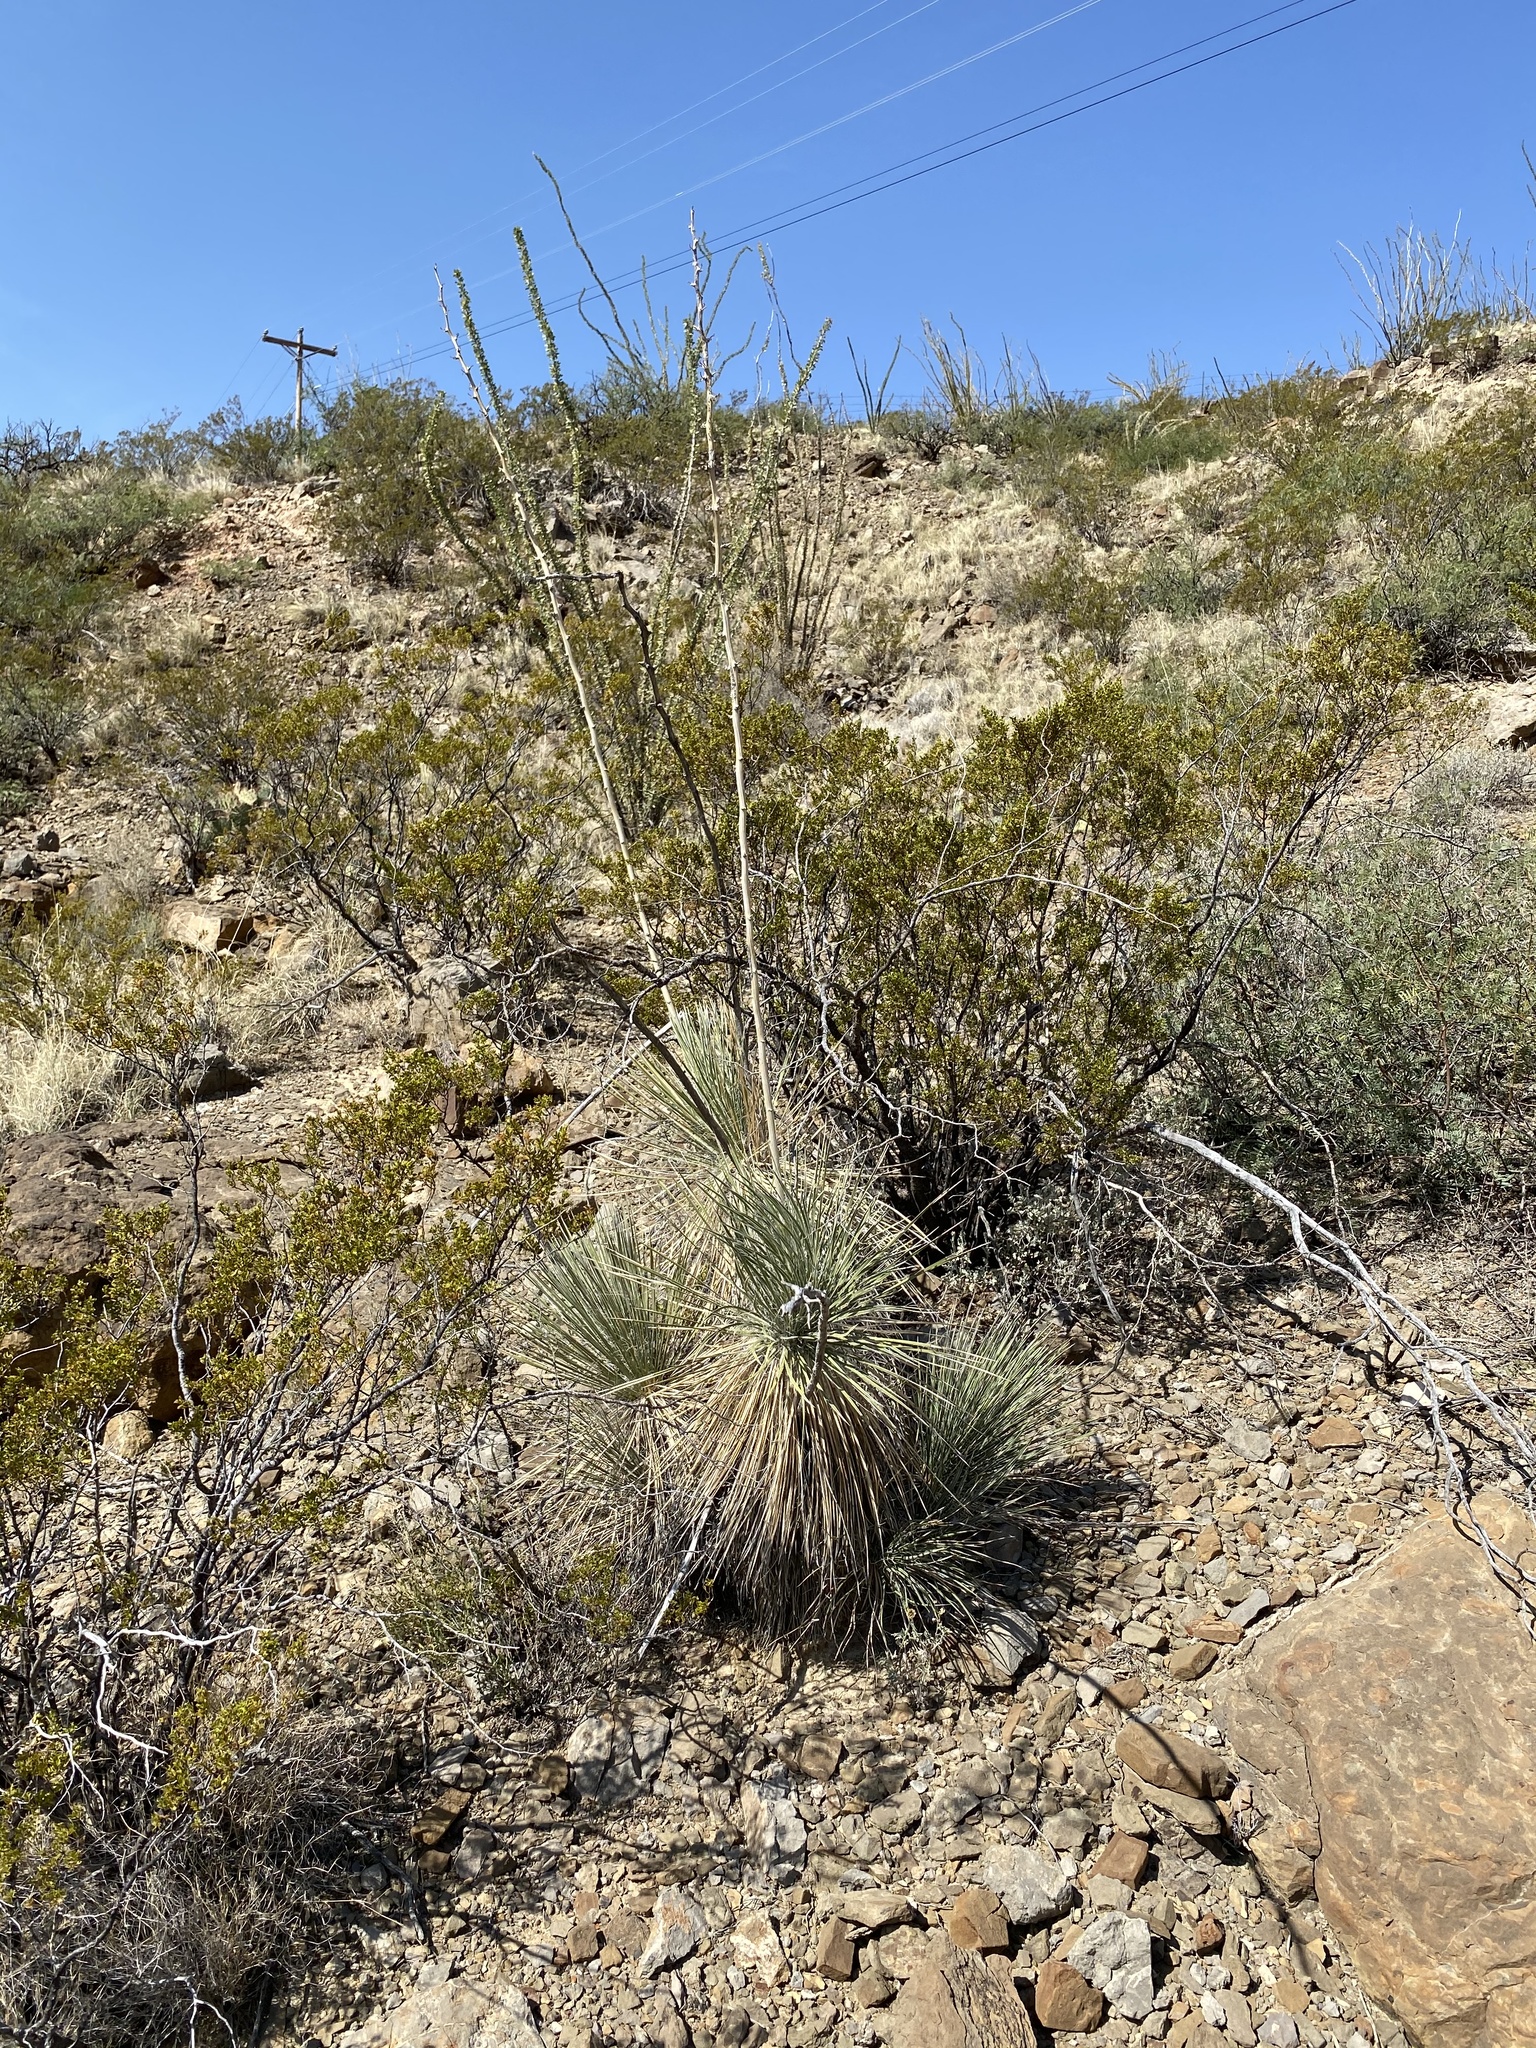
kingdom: Plantae
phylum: Tracheophyta
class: Liliopsida
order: Asparagales
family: Asparagaceae
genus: Yucca
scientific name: Yucca elata
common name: Palmella
